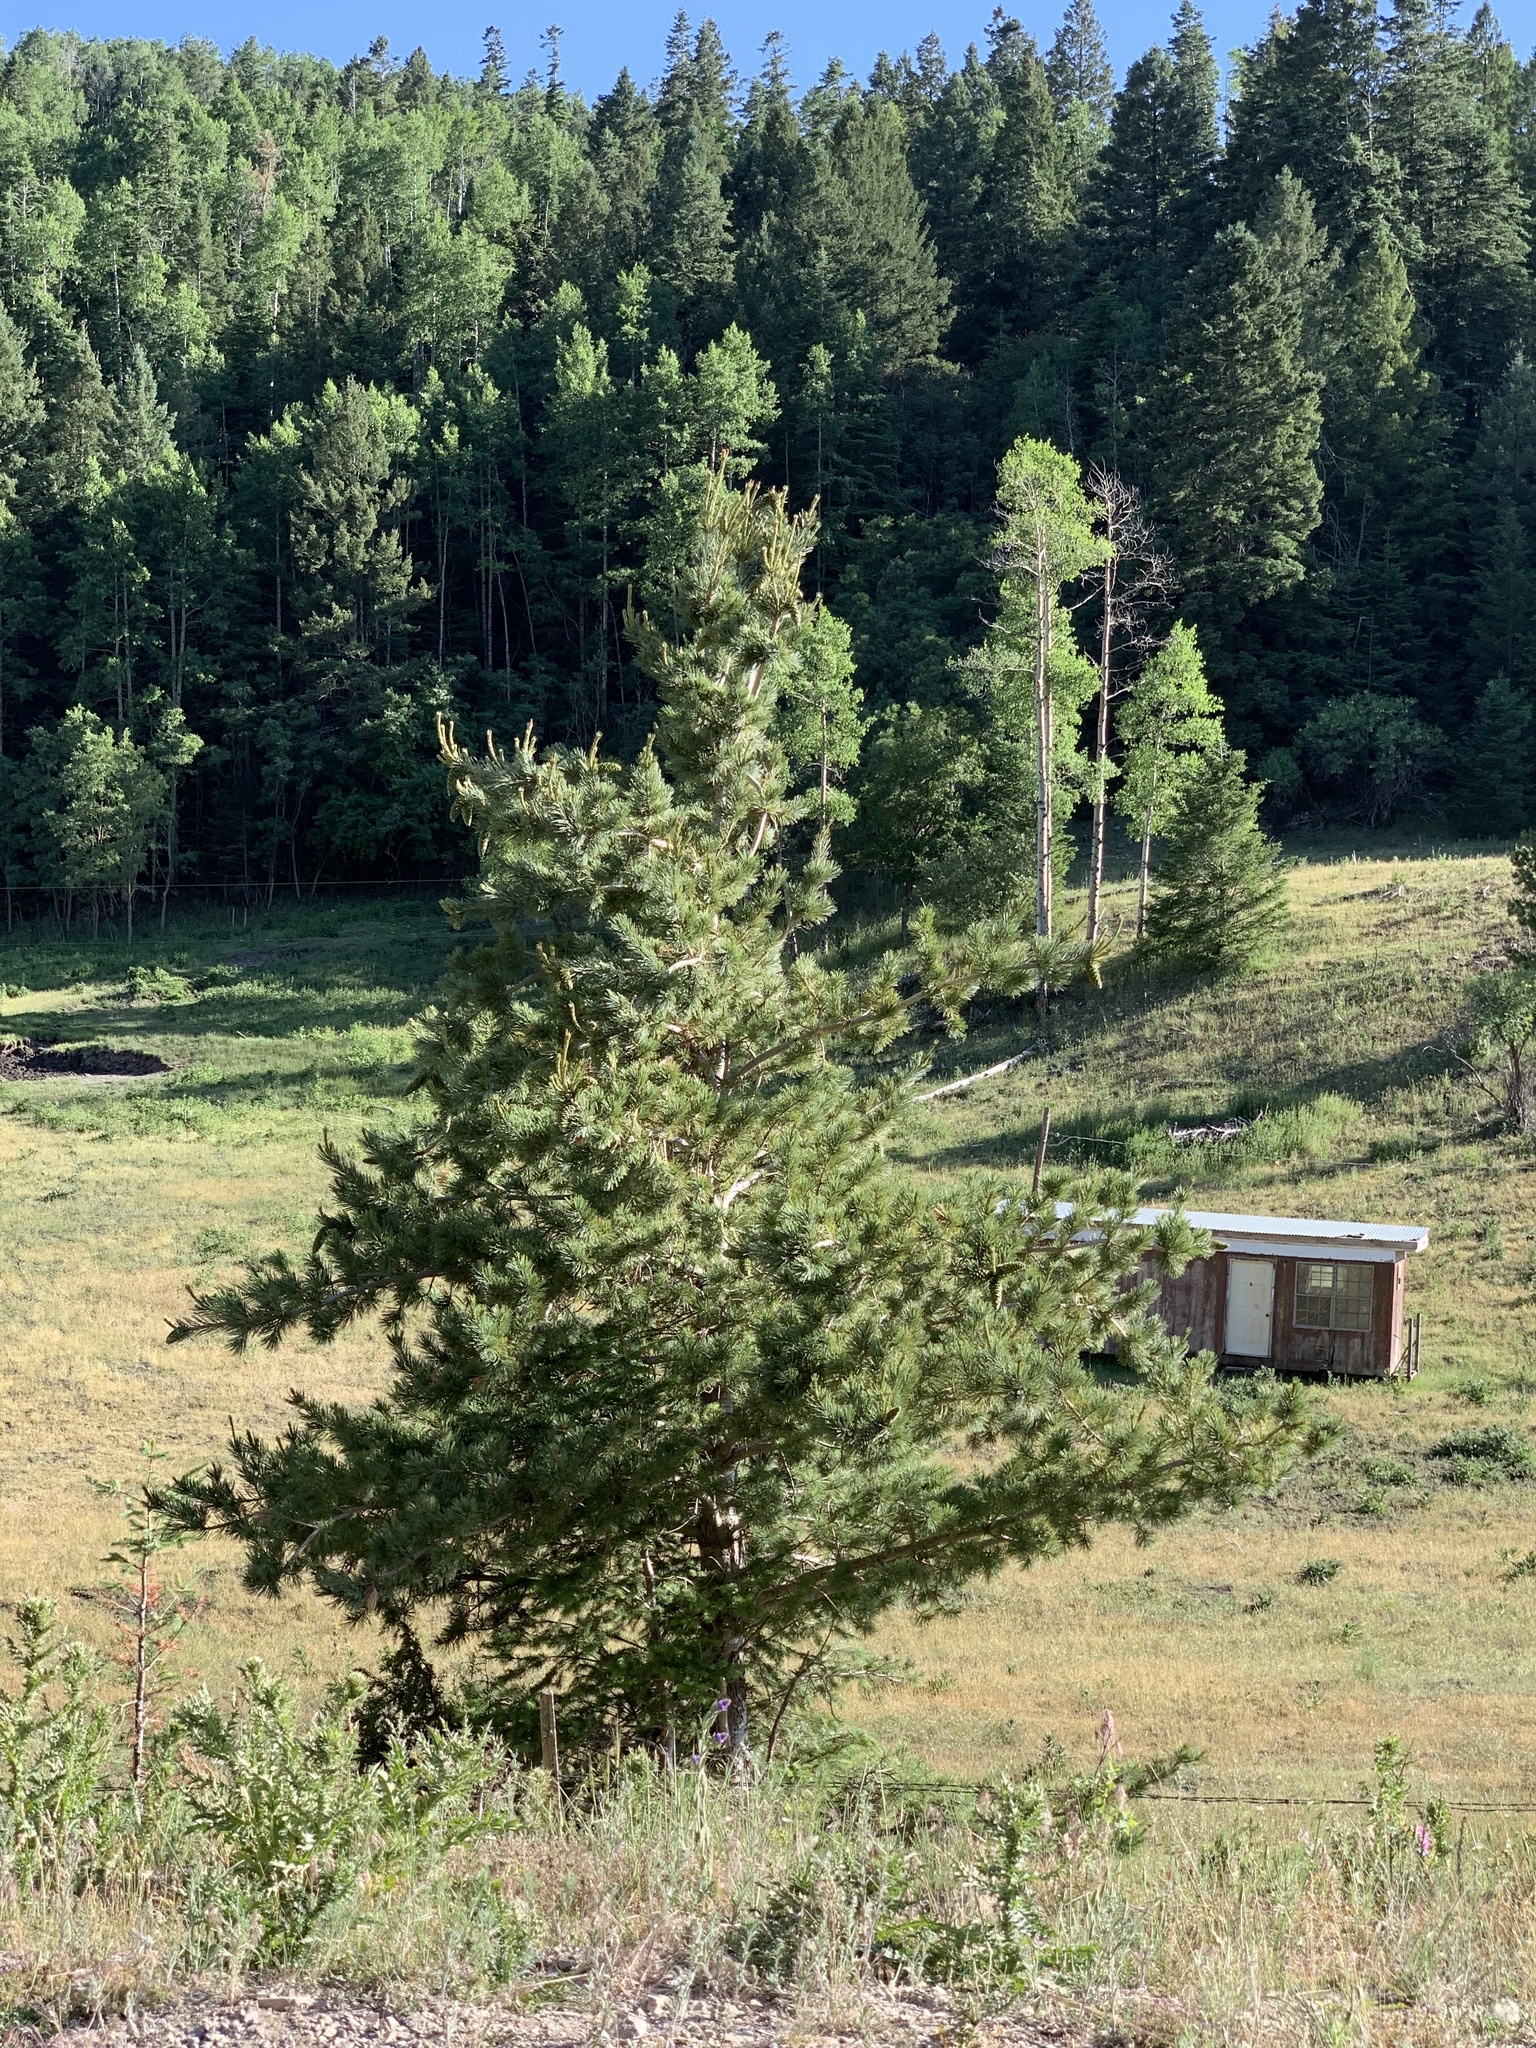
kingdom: Plantae
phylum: Tracheophyta
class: Pinopsida
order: Pinales
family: Pinaceae
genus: Pinus
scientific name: Pinus strobiformis
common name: Southwestern white pine
